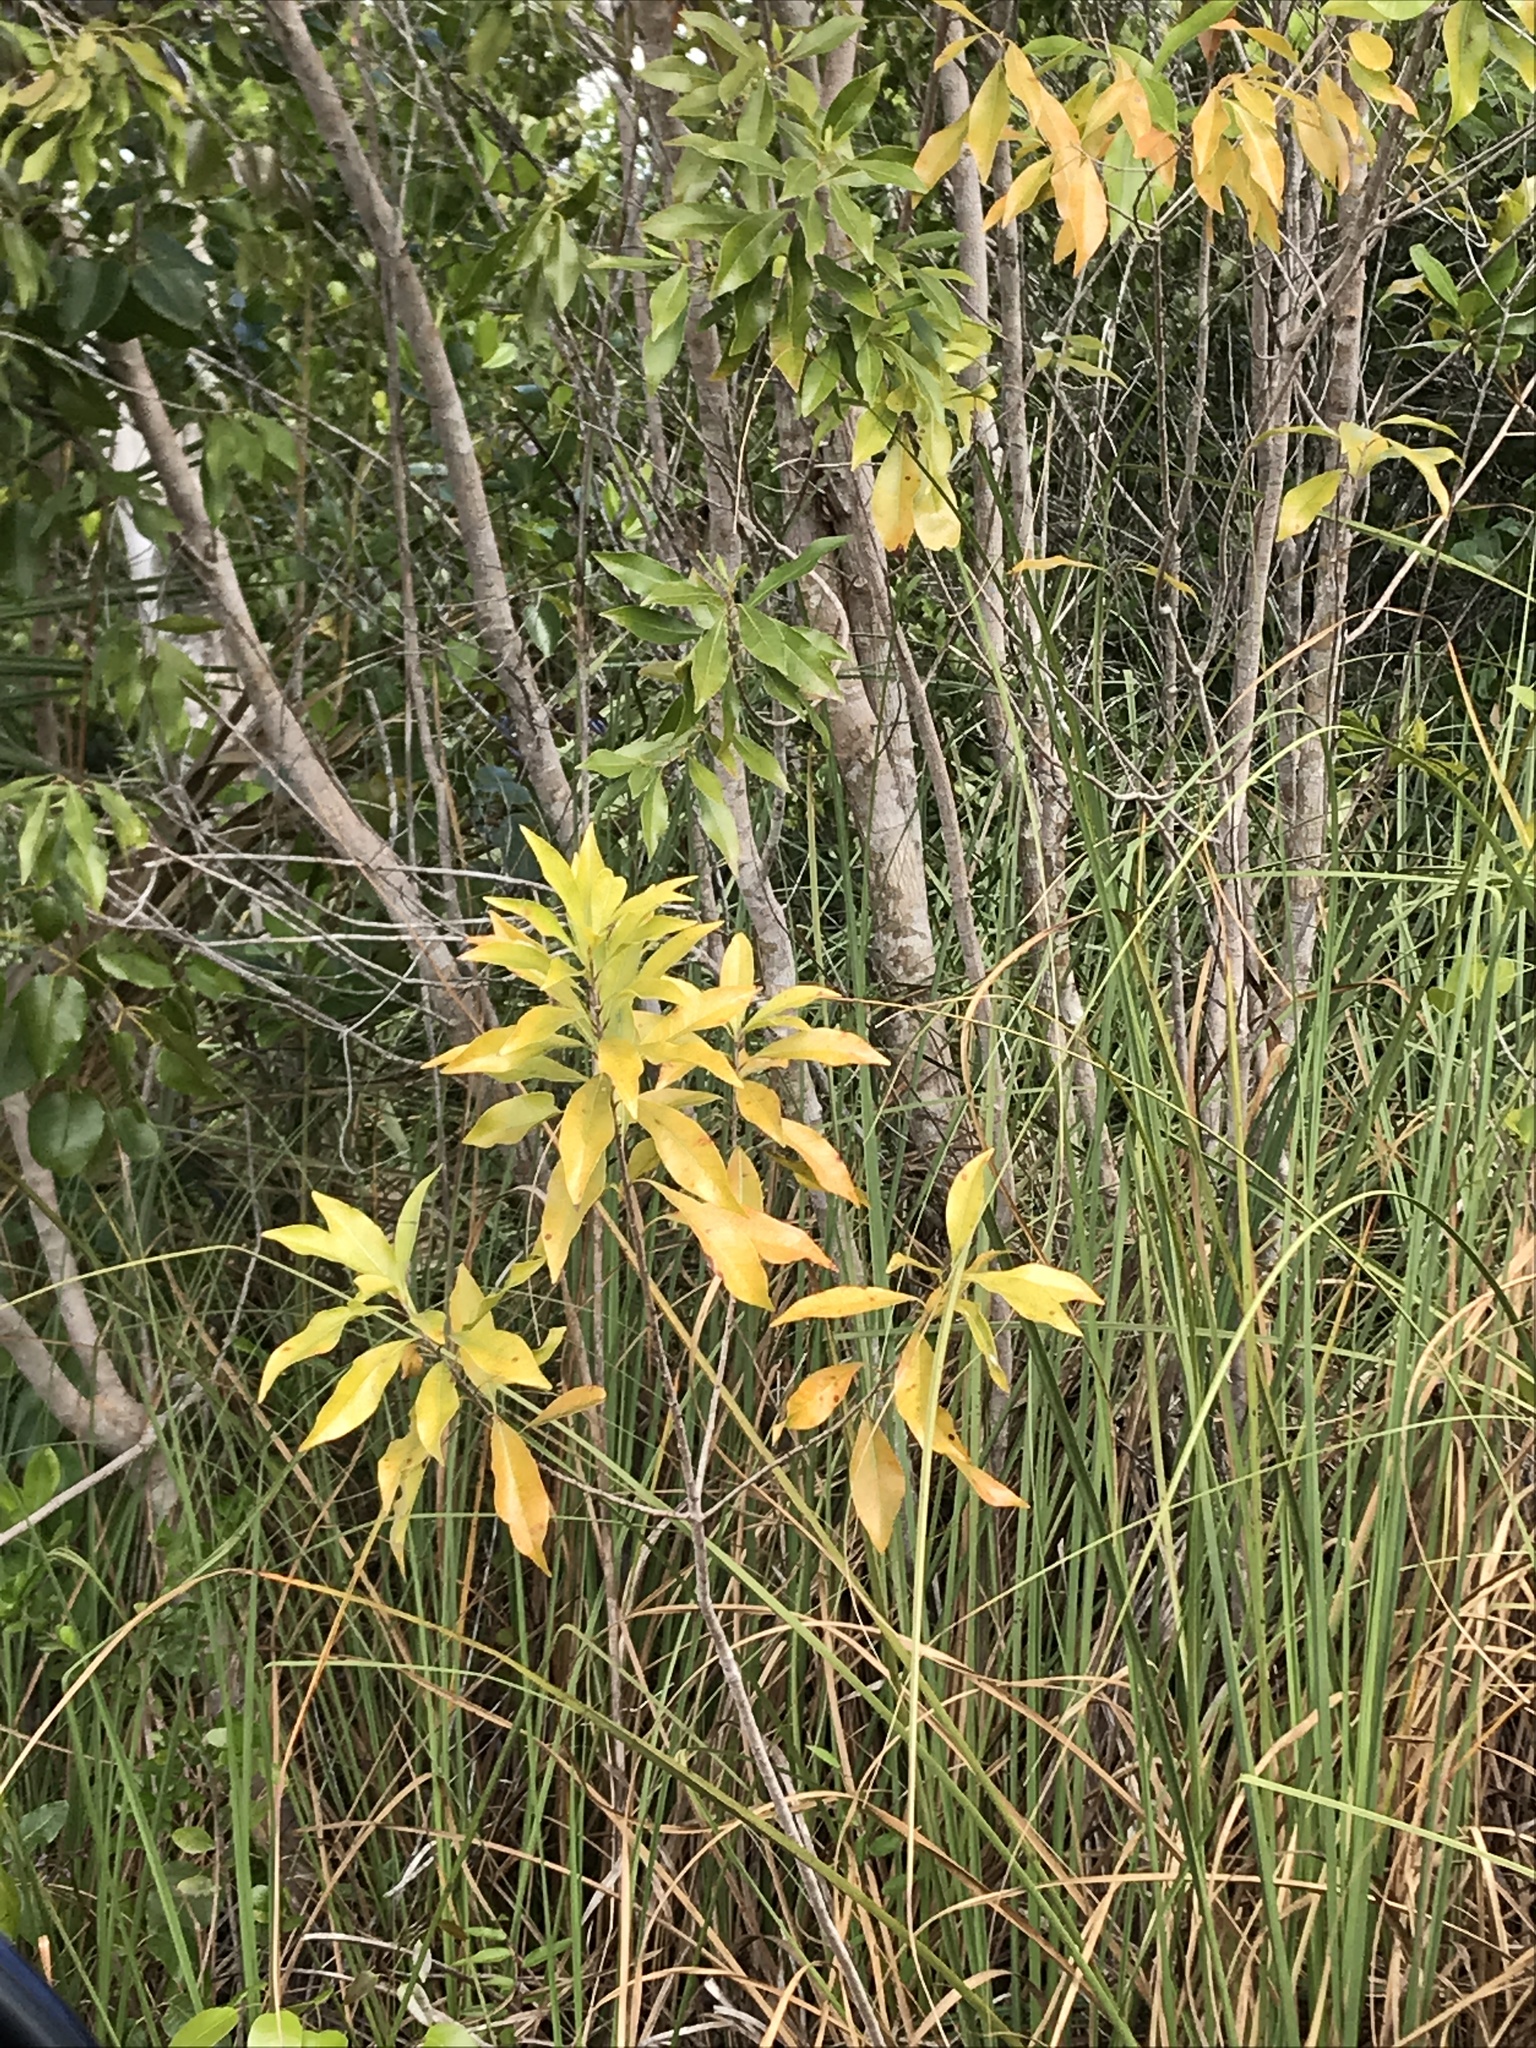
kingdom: Plantae
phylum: Tracheophyta
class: Magnoliopsida
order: Ericales
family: Sapotaceae
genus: Sideroxylon
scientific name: Sideroxylon salicifolium
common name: White bully
